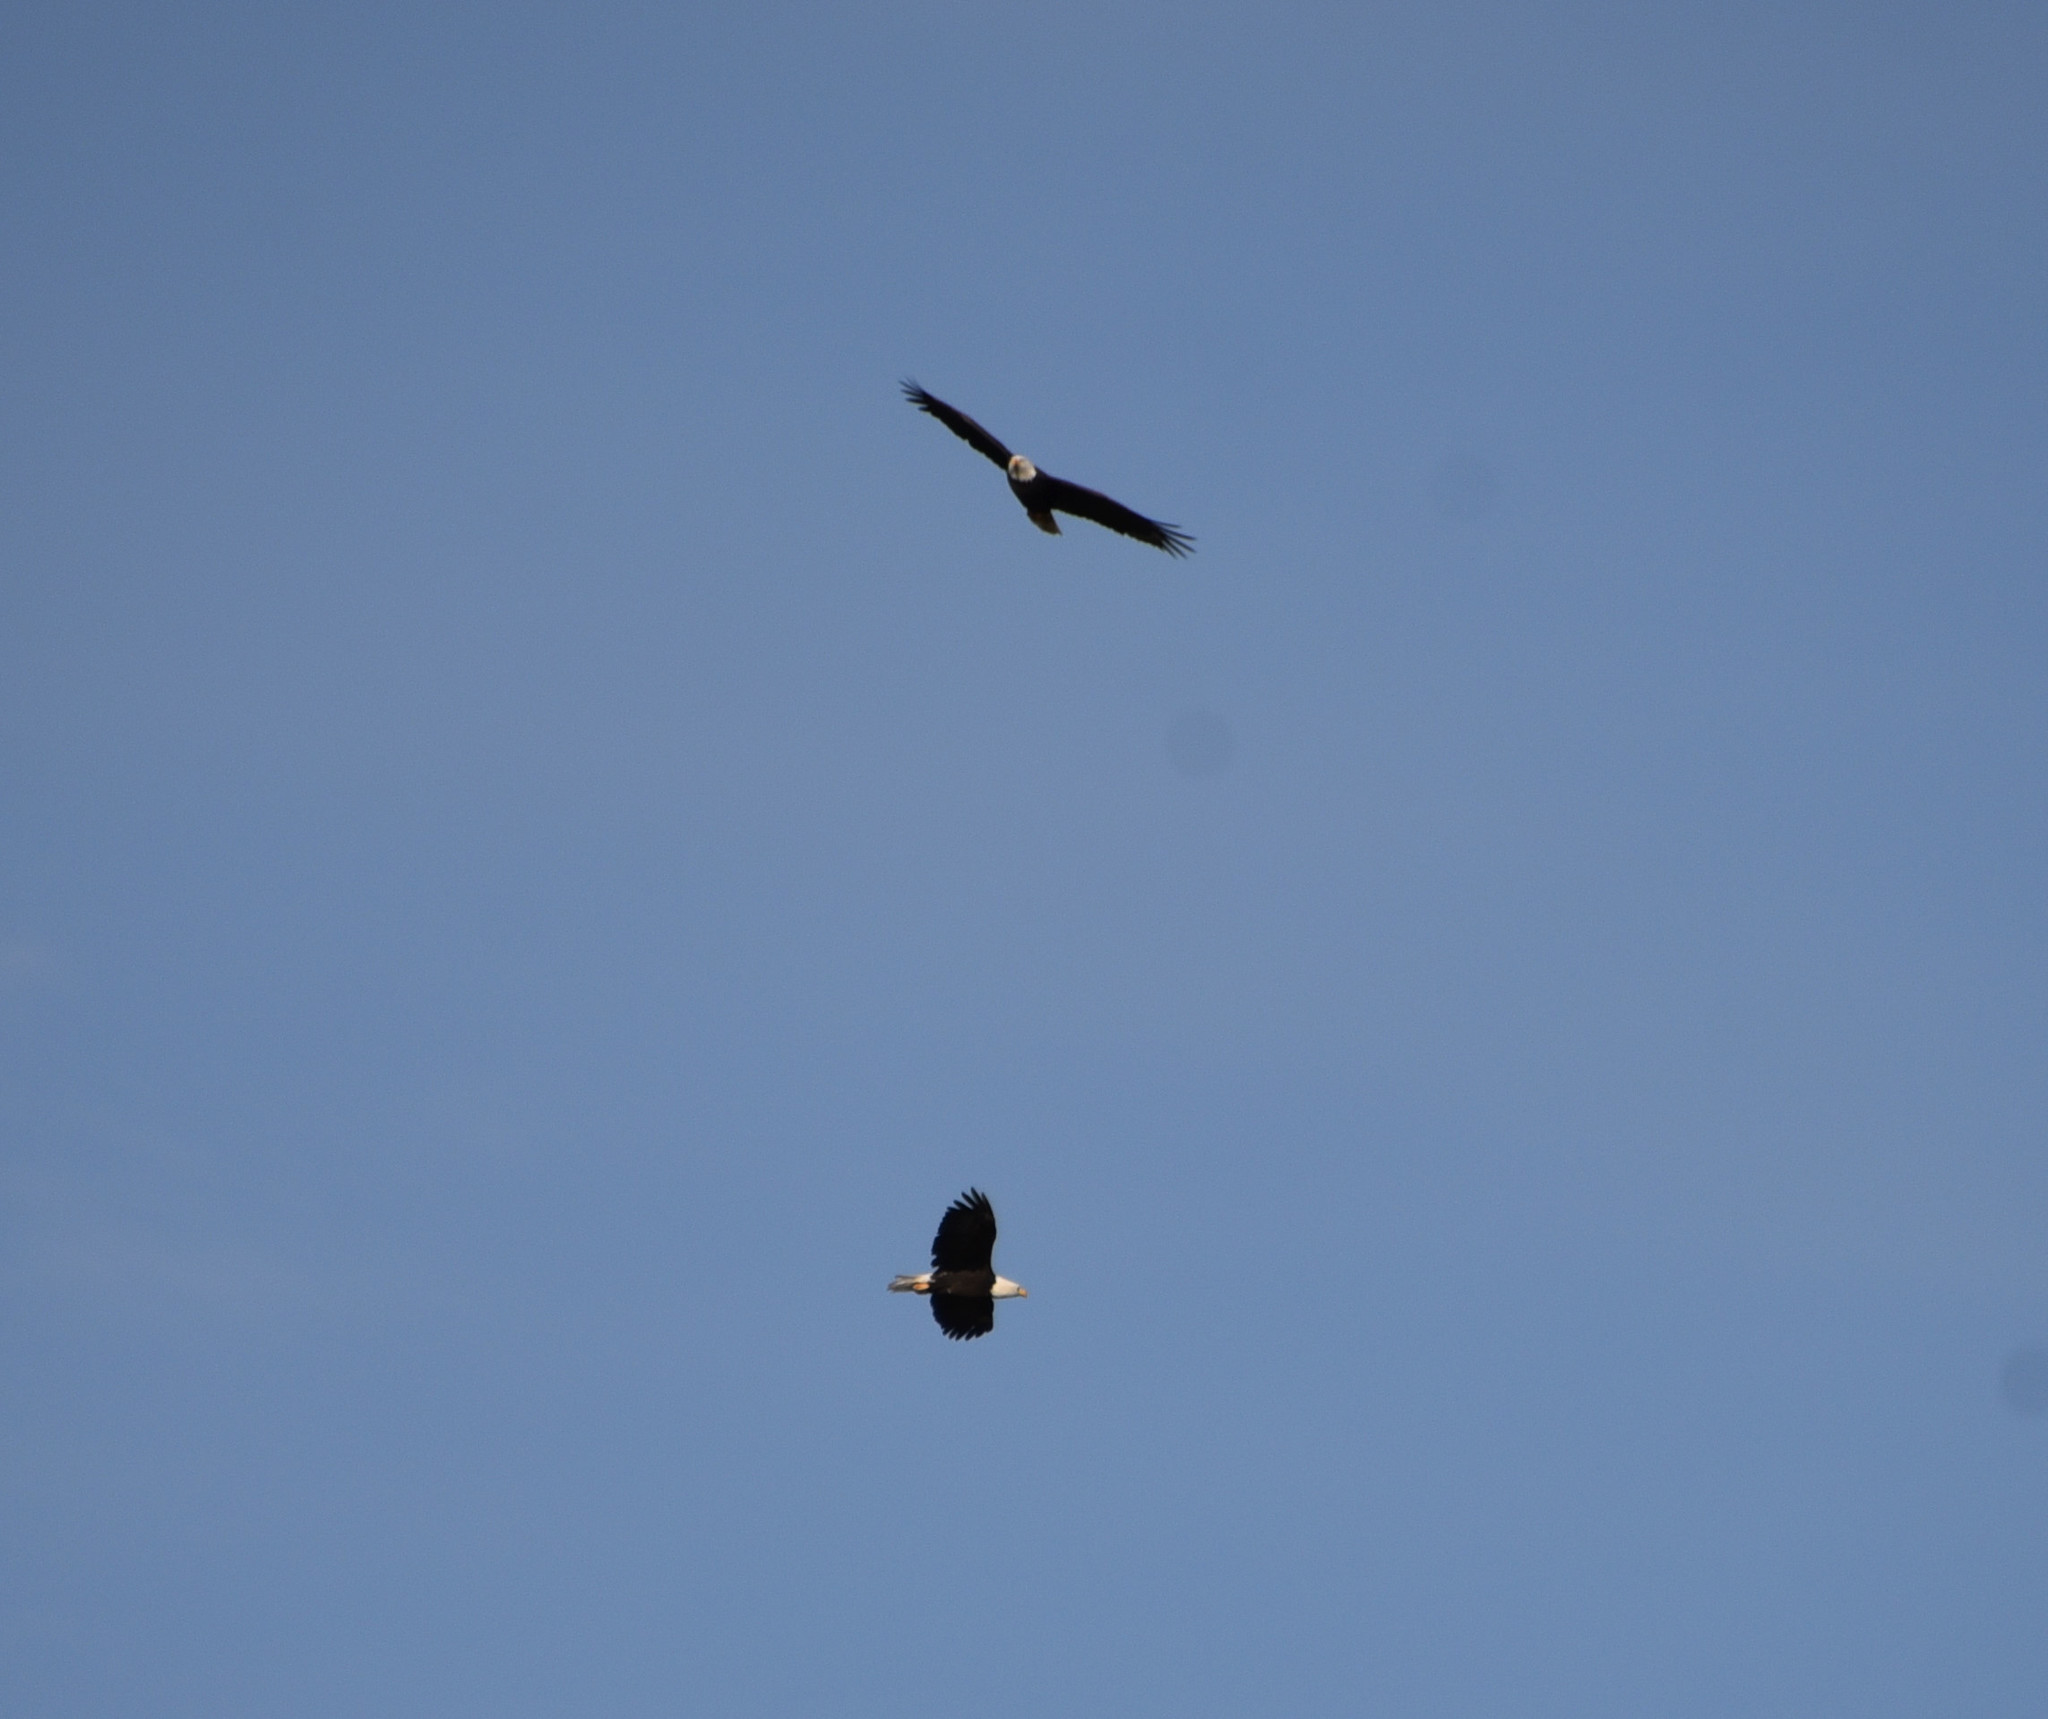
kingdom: Animalia
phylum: Chordata
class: Aves
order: Accipitriformes
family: Accipitridae
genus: Haliaeetus
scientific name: Haliaeetus leucocephalus
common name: Bald eagle
